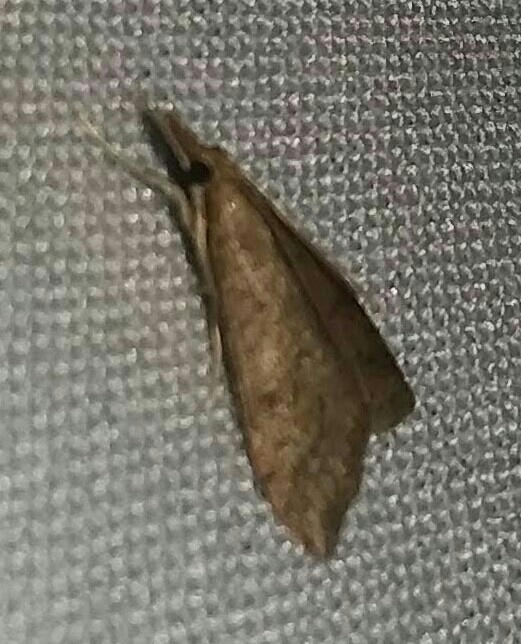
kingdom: Animalia
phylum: Arthropoda
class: Insecta
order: Lepidoptera
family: Crambidae
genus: Udea
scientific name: Udea rubigalis
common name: Celery leaftier moth
